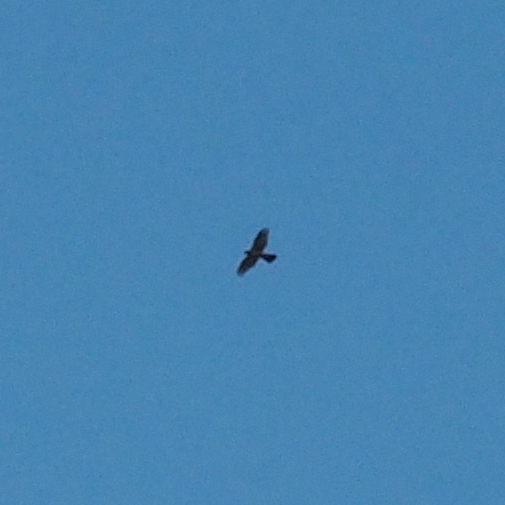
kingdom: Animalia
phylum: Chordata
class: Aves
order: Accipitriformes
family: Accipitridae
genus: Accipiter
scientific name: Accipiter gentilis
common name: Northern goshawk
